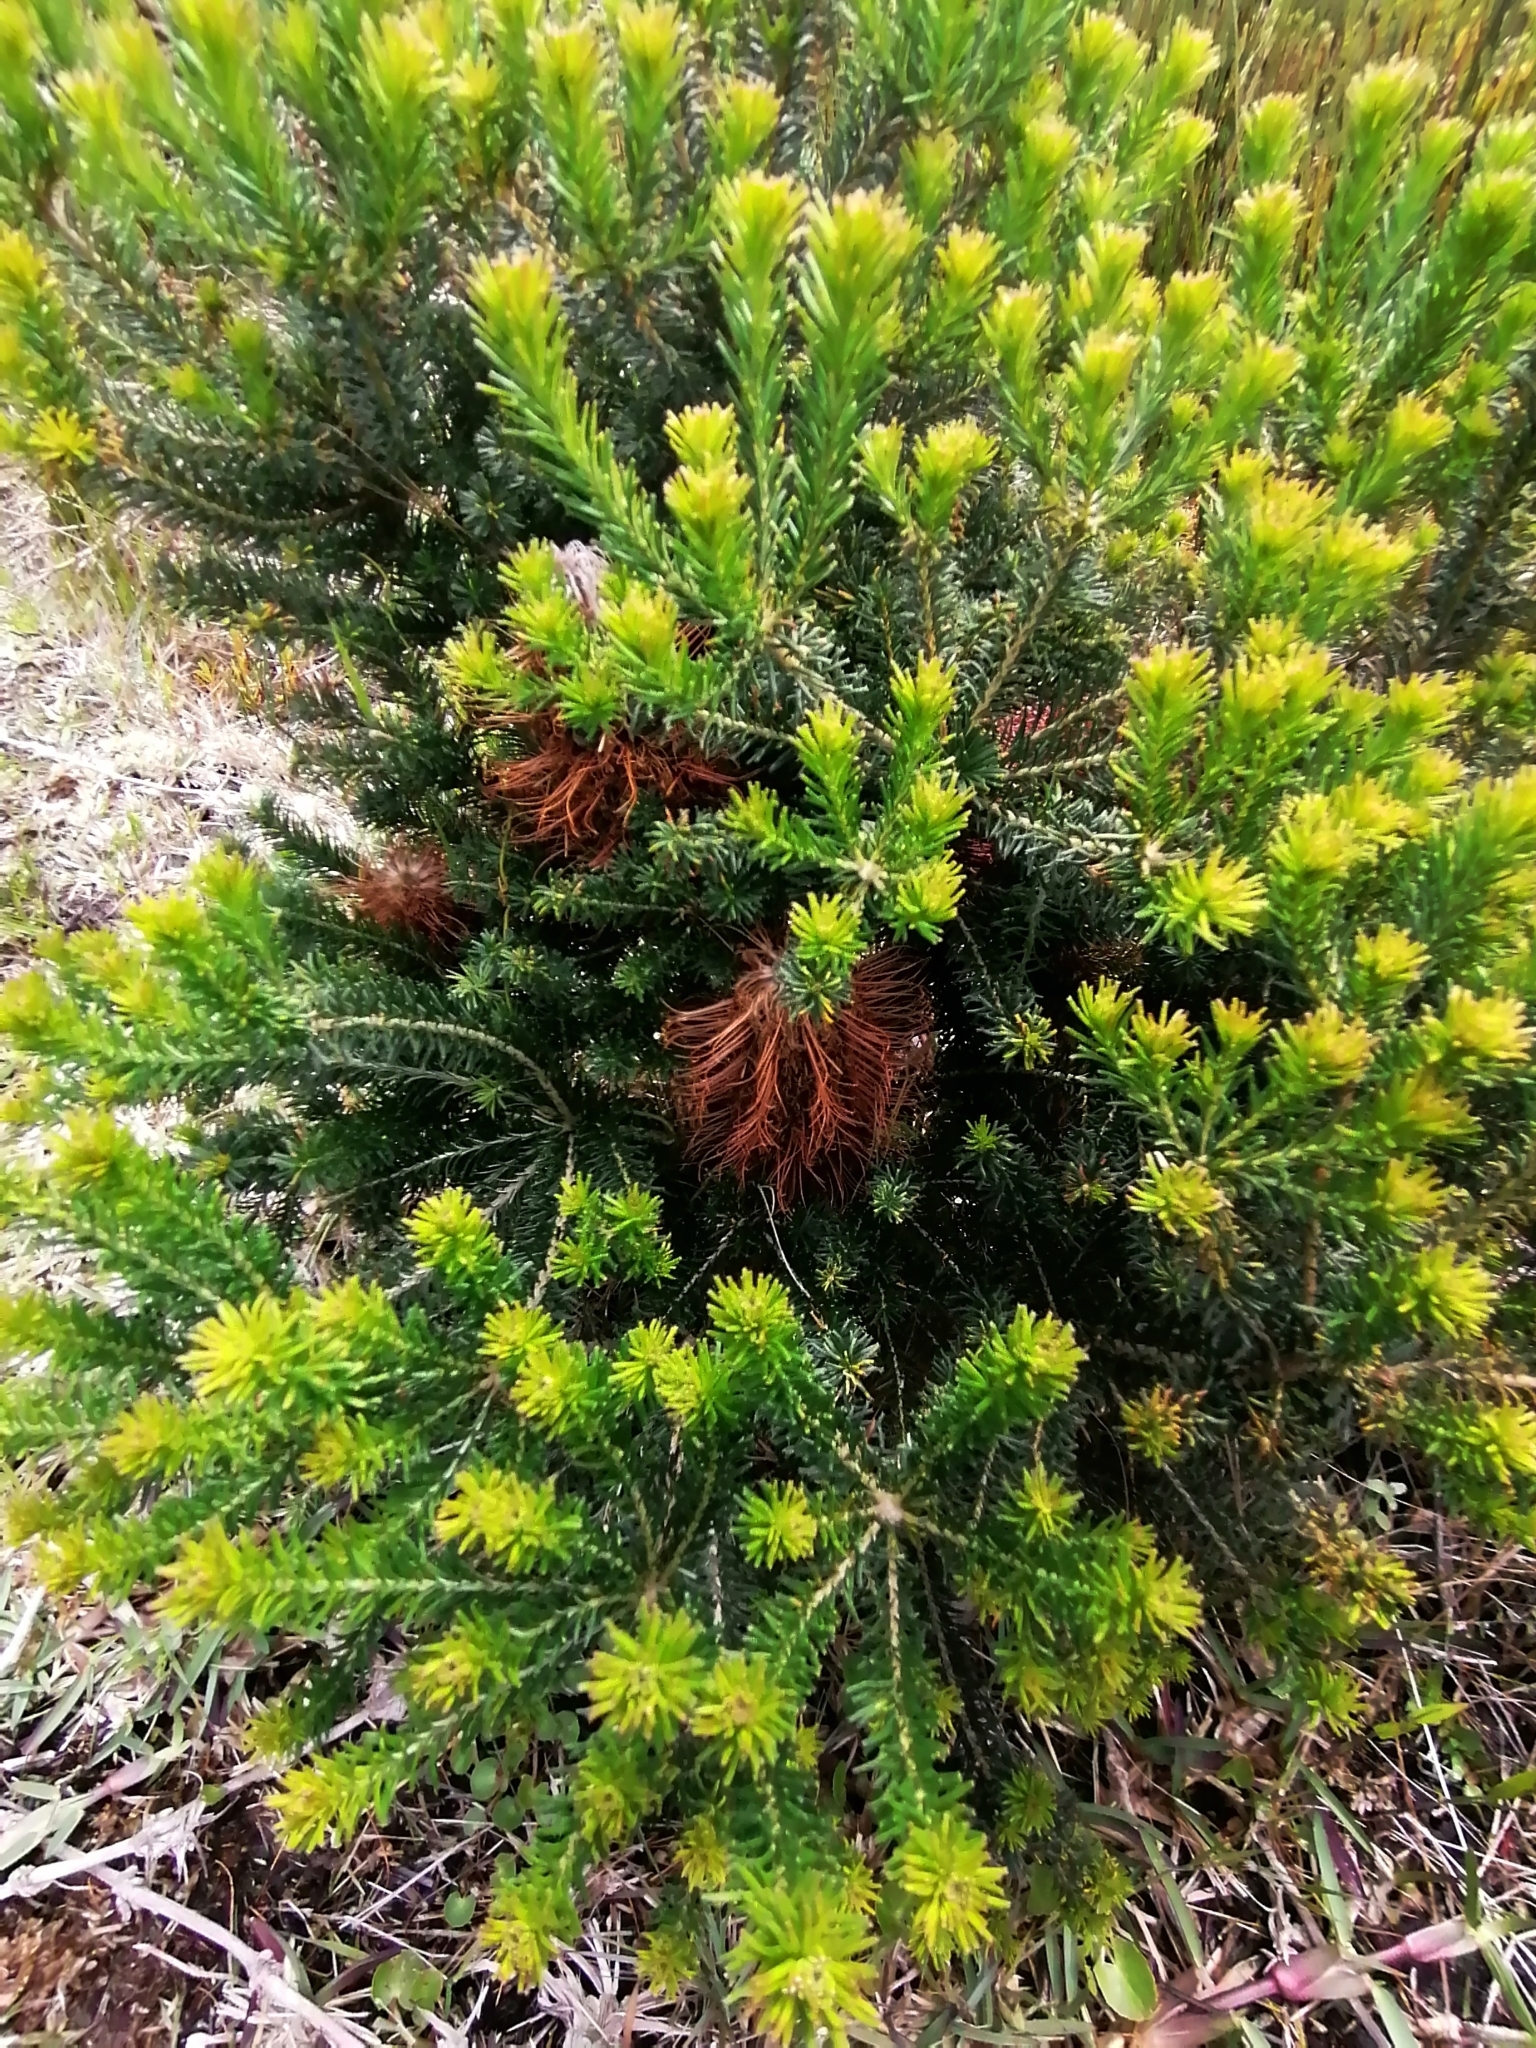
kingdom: Plantae
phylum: Tracheophyta
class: Magnoliopsida
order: Proteales
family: Proteaceae
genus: Banksia
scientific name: Banksia ericifolia
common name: Heath-leaf banksia
